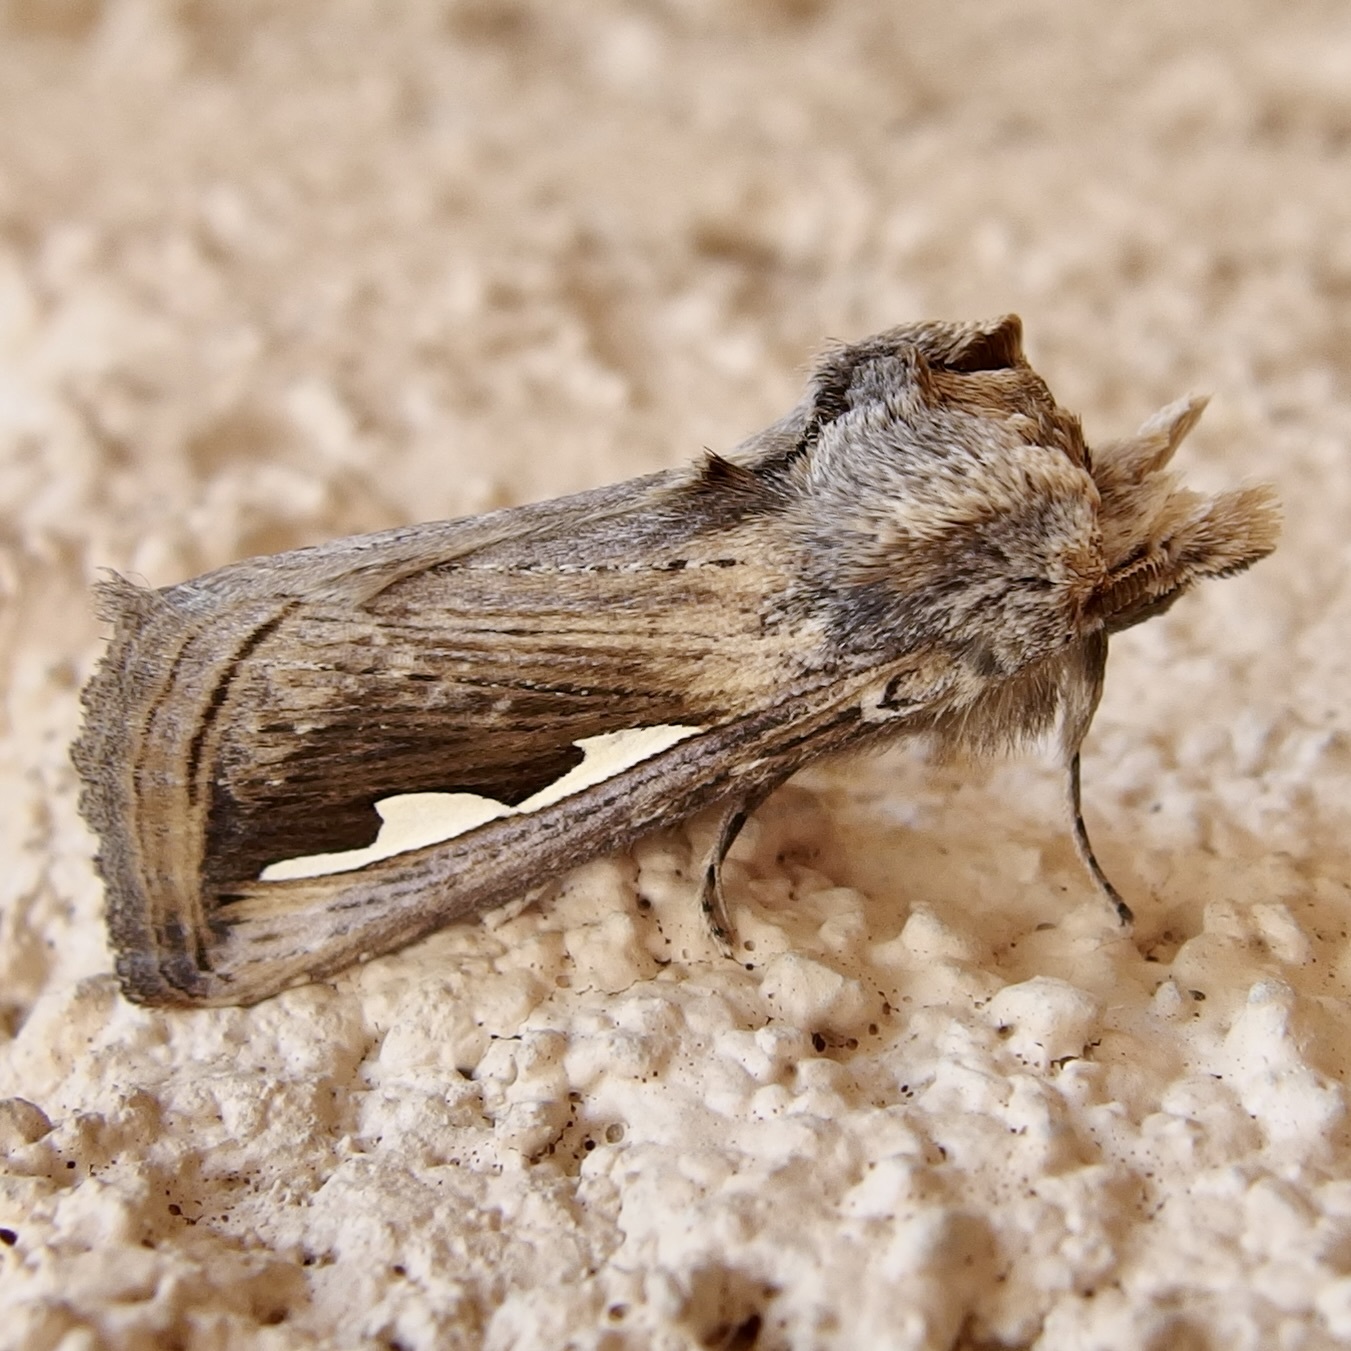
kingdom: Animalia
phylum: Arthropoda
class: Insecta
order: Lepidoptera
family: Notodontidae
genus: Didugua
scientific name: Didugua argentilinea
